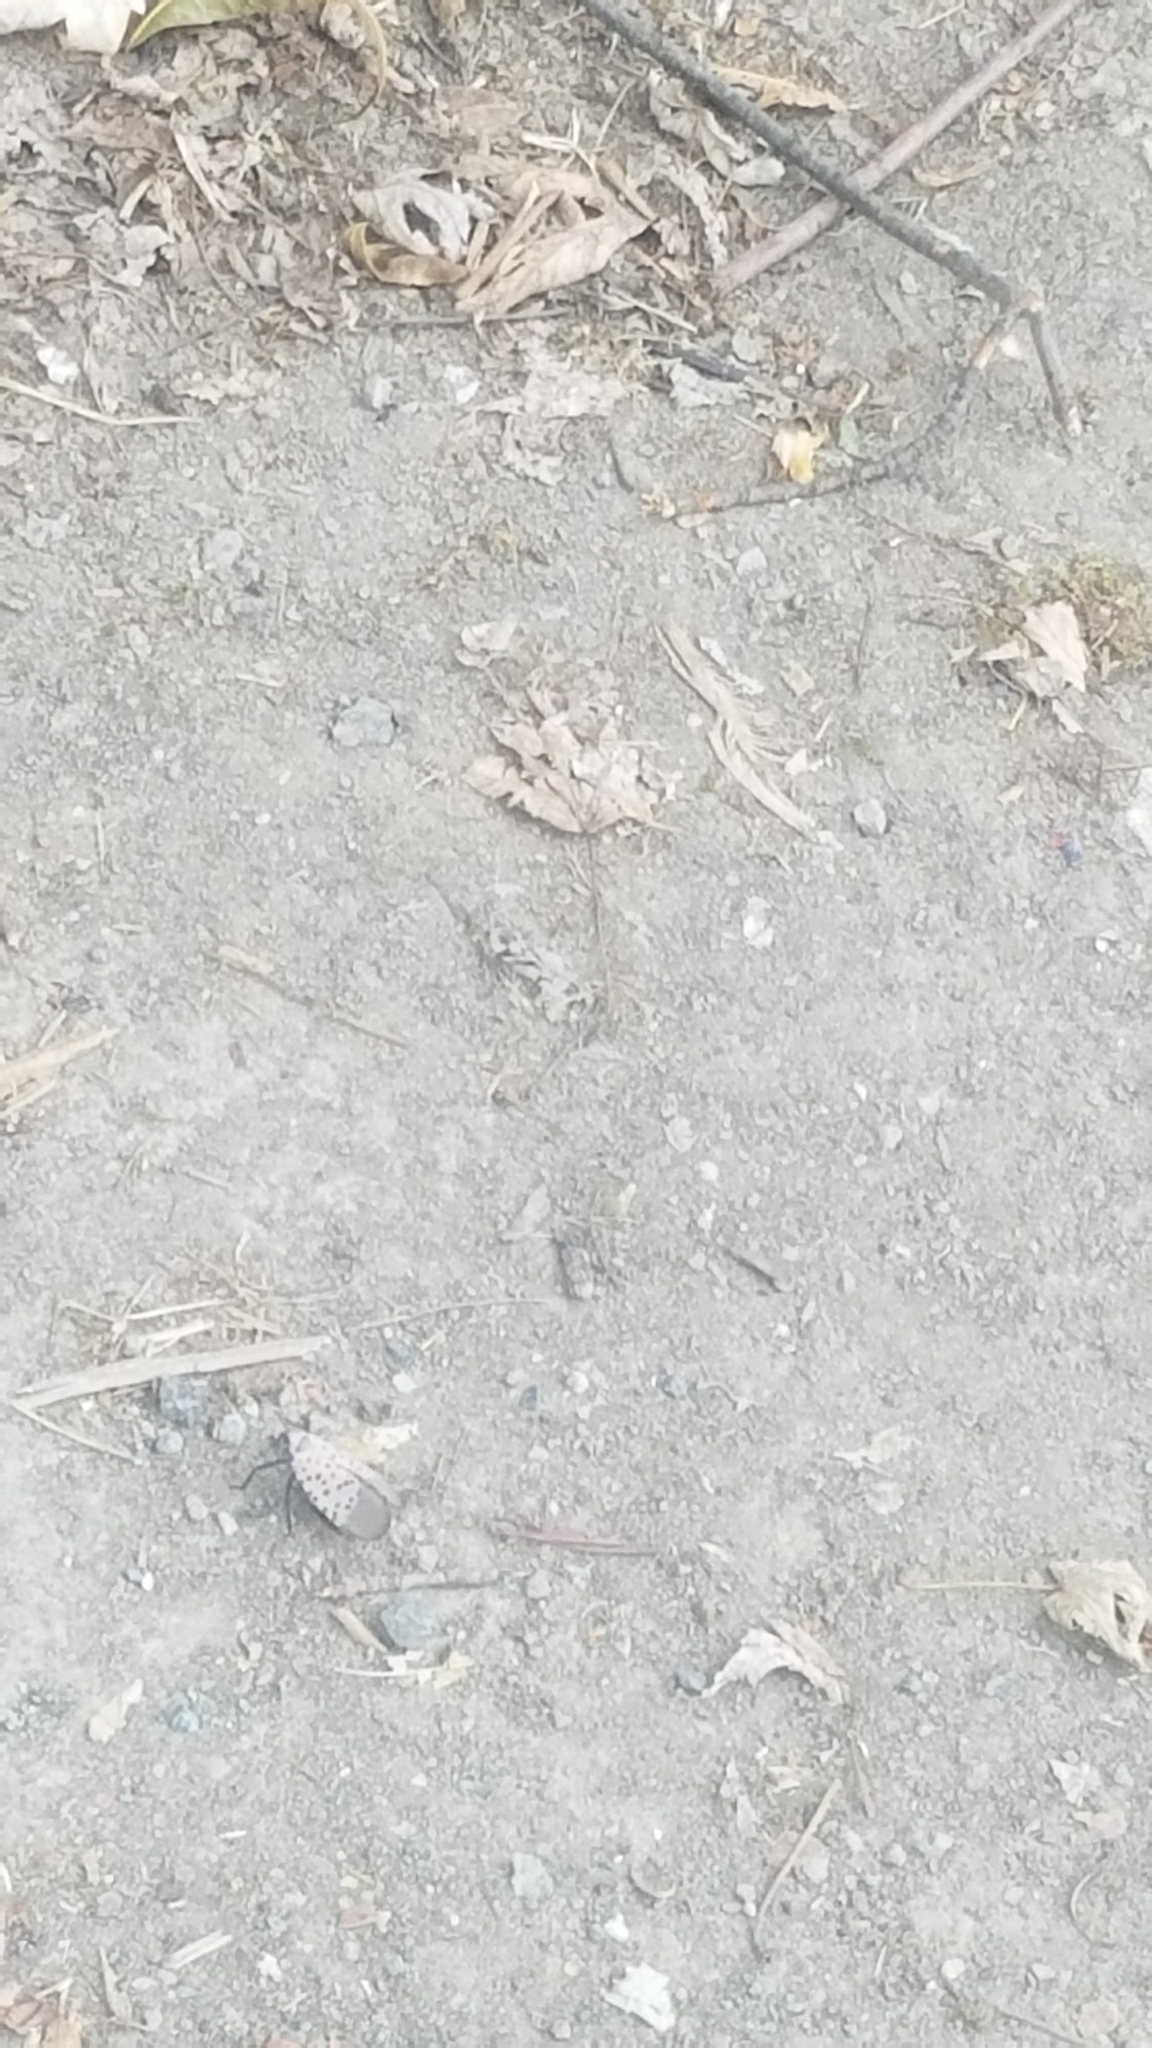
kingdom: Animalia
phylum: Arthropoda
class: Insecta
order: Hemiptera
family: Fulgoridae
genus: Lycorma
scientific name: Lycorma delicatula
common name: Spotted lanternfly
